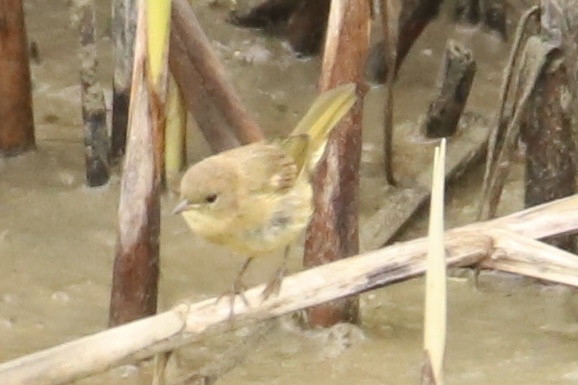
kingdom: Animalia
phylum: Chordata
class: Aves
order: Passeriformes
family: Parulidae
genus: Geothlypis
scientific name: Geothlypis trichas
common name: Common yellowthroat
